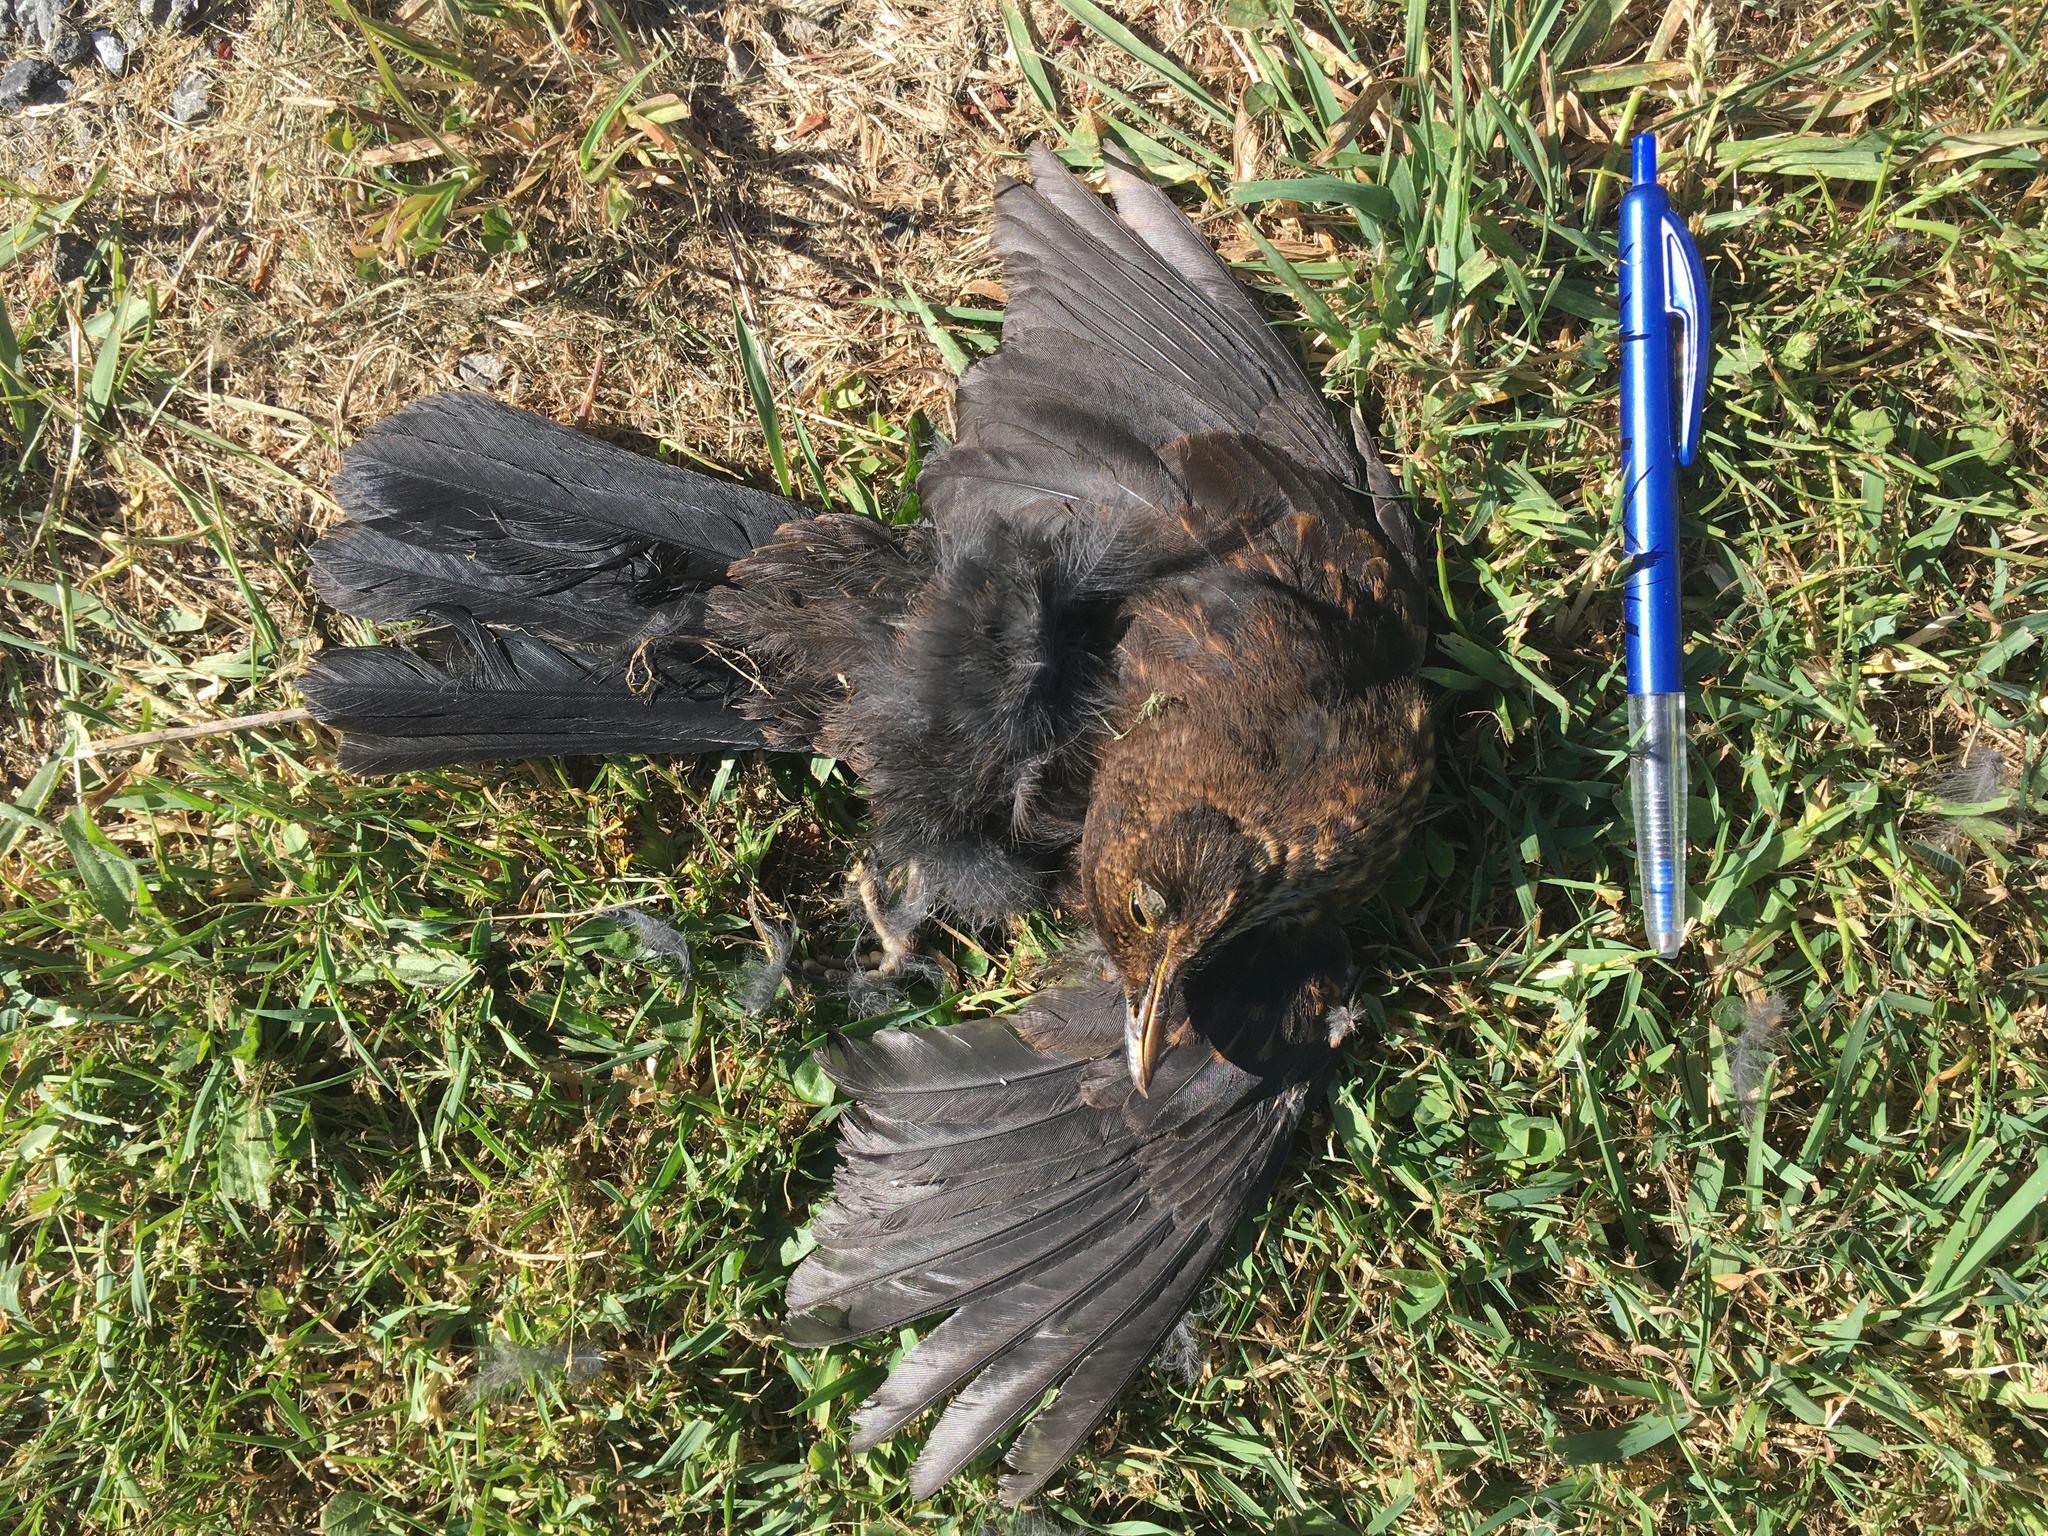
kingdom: Animalia
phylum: Chordata
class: Aves
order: Passeriformes
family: Turdidae
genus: Turdus
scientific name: Turdus merula
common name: Common blackbird
